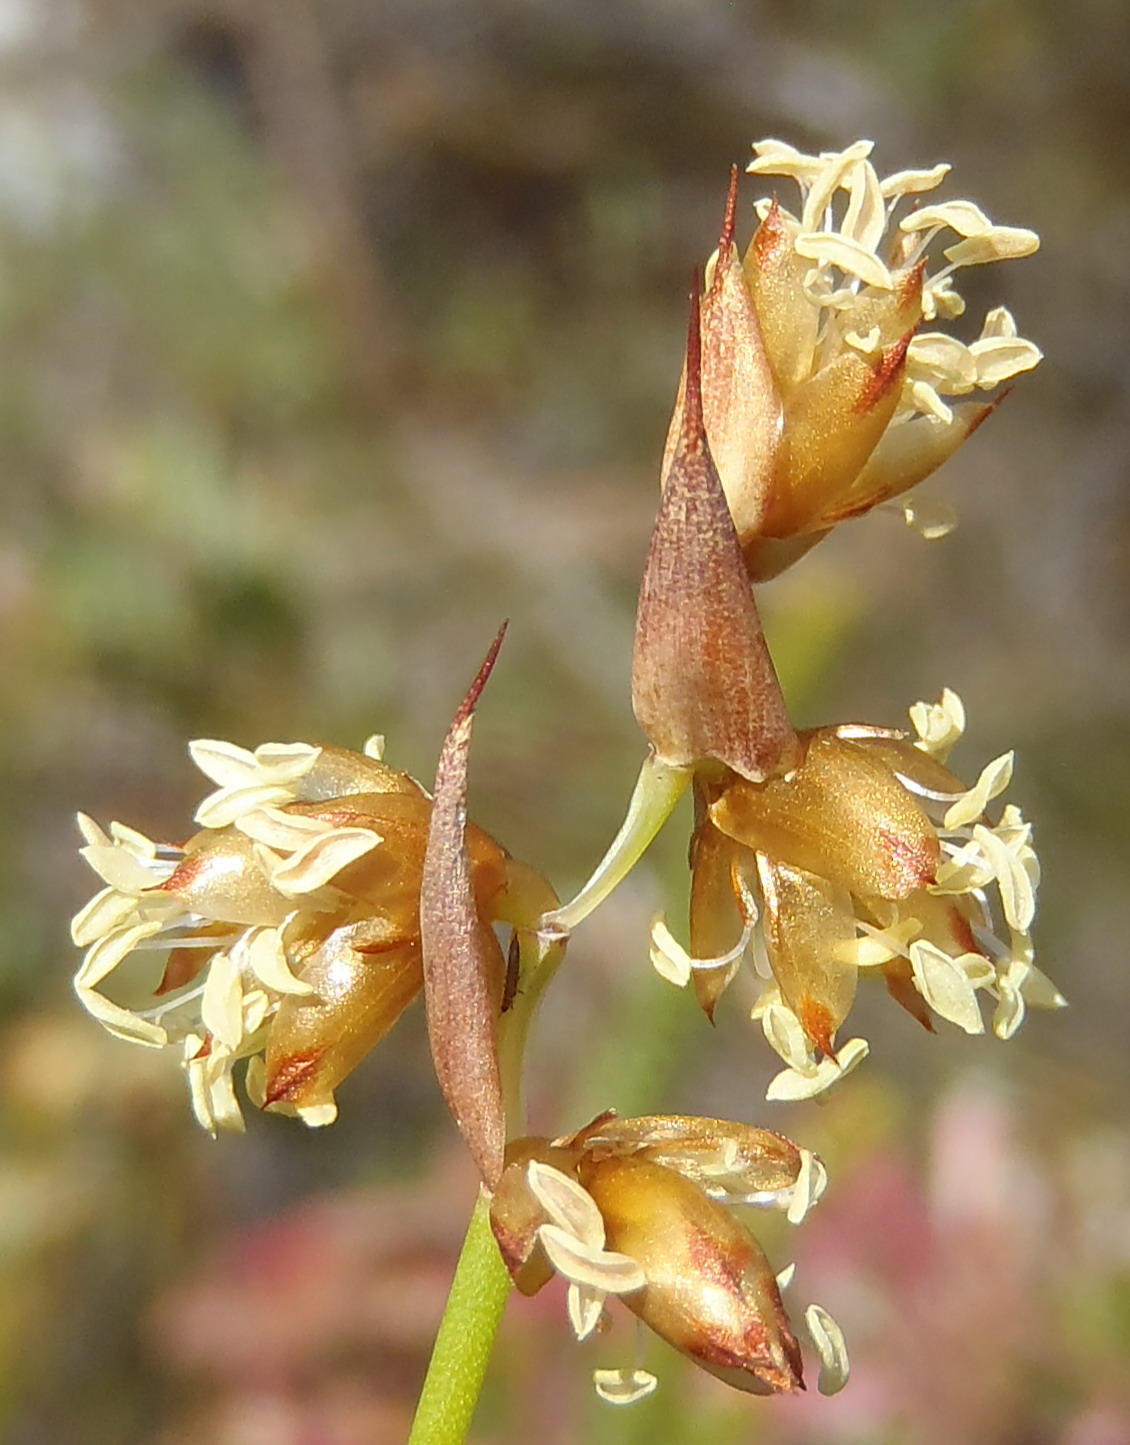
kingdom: Plantae
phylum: Tracheophyta
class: Liliopsida
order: Poales
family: Restionaceae
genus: Mastersiella
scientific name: Mastersiella spathulata
